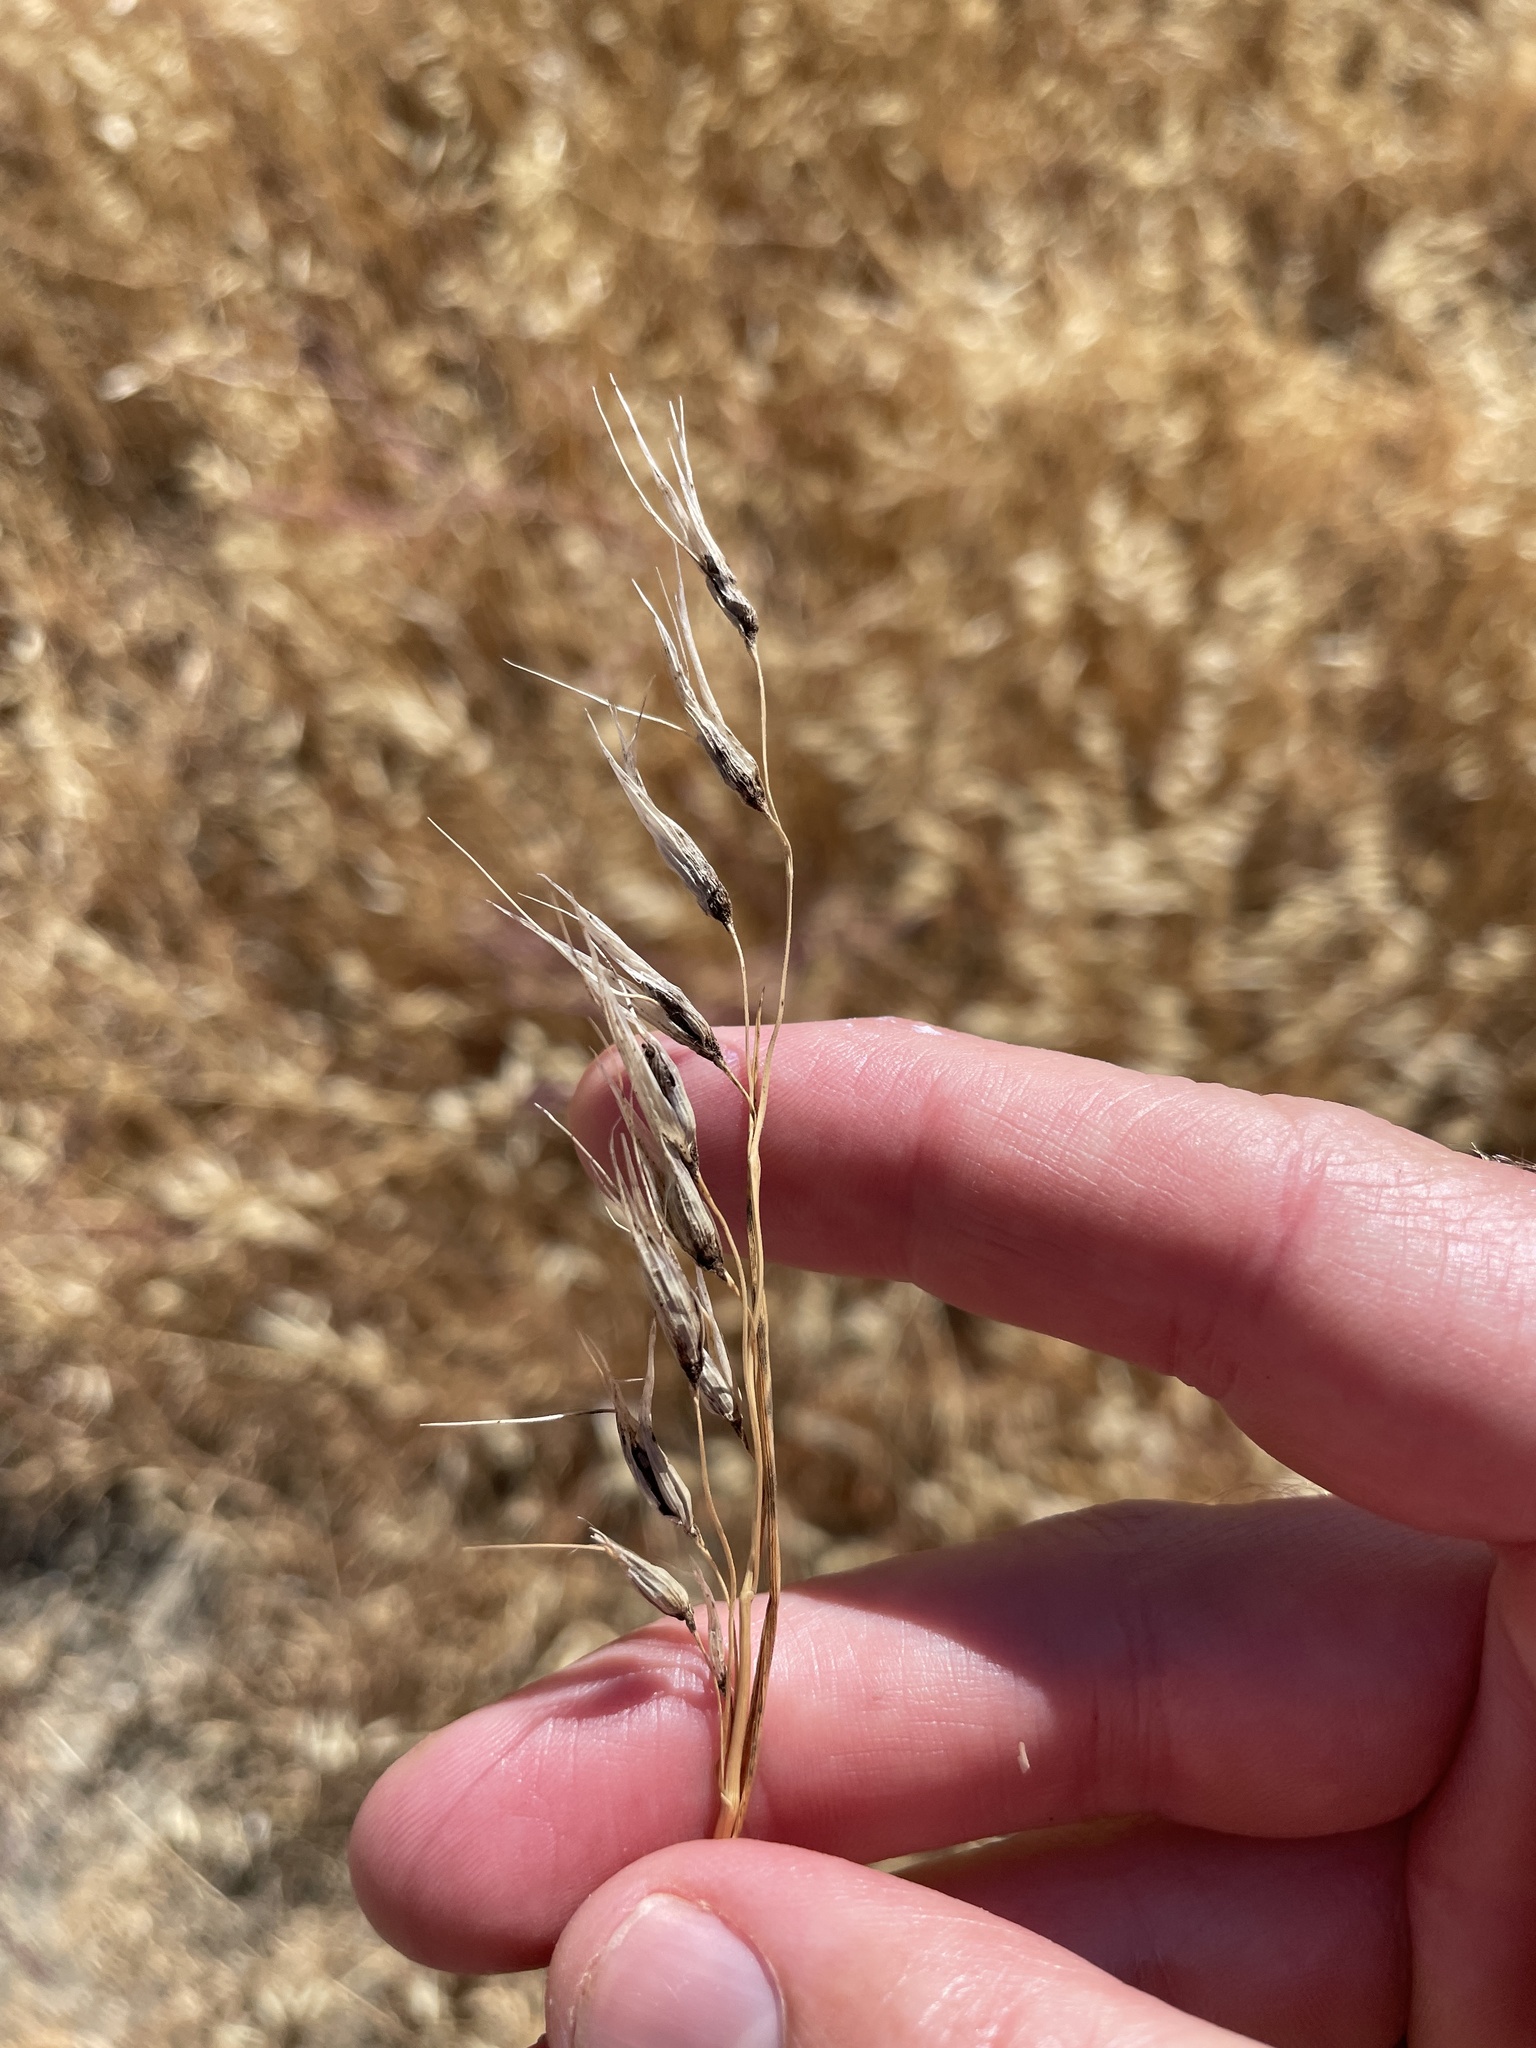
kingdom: Fungi
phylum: Basidiomycota
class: Ustilaginomycetes
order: Ustilaginales
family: Ustilaginaceae
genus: Ustilago
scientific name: Ustilago avenae
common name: Loose smut of oats & oat grass
